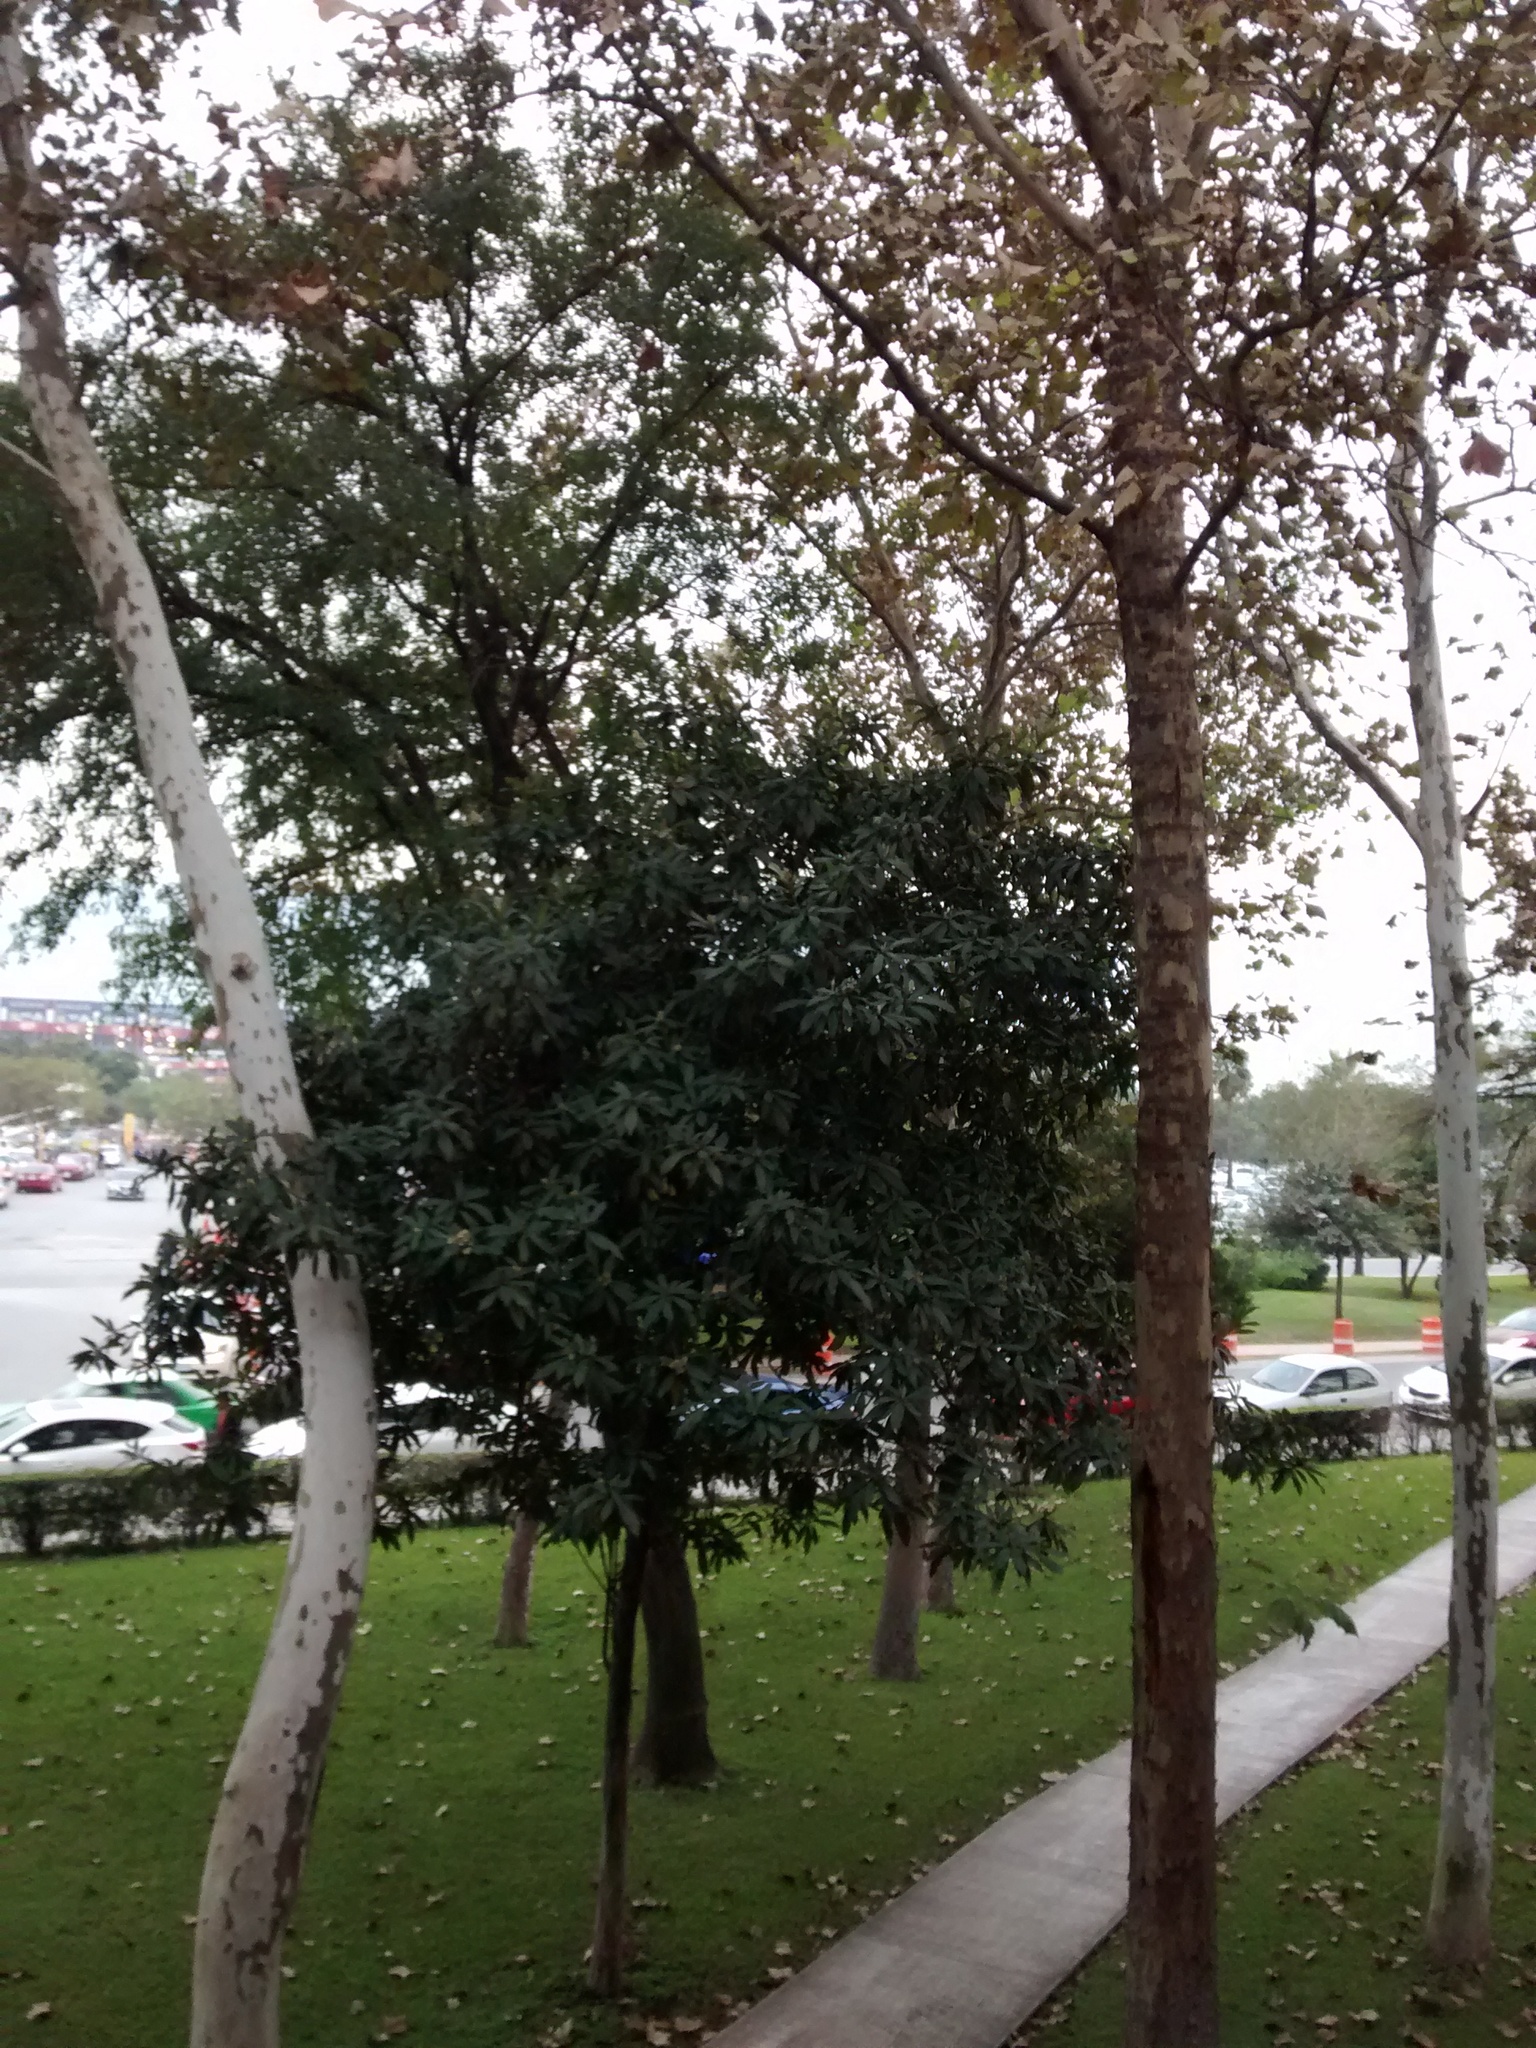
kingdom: Plantae
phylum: Tracheophyta
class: Magnoliopsida
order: Proteales
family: Platanaceae
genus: Platanus
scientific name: Platanus occidentalis
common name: American sycamore
